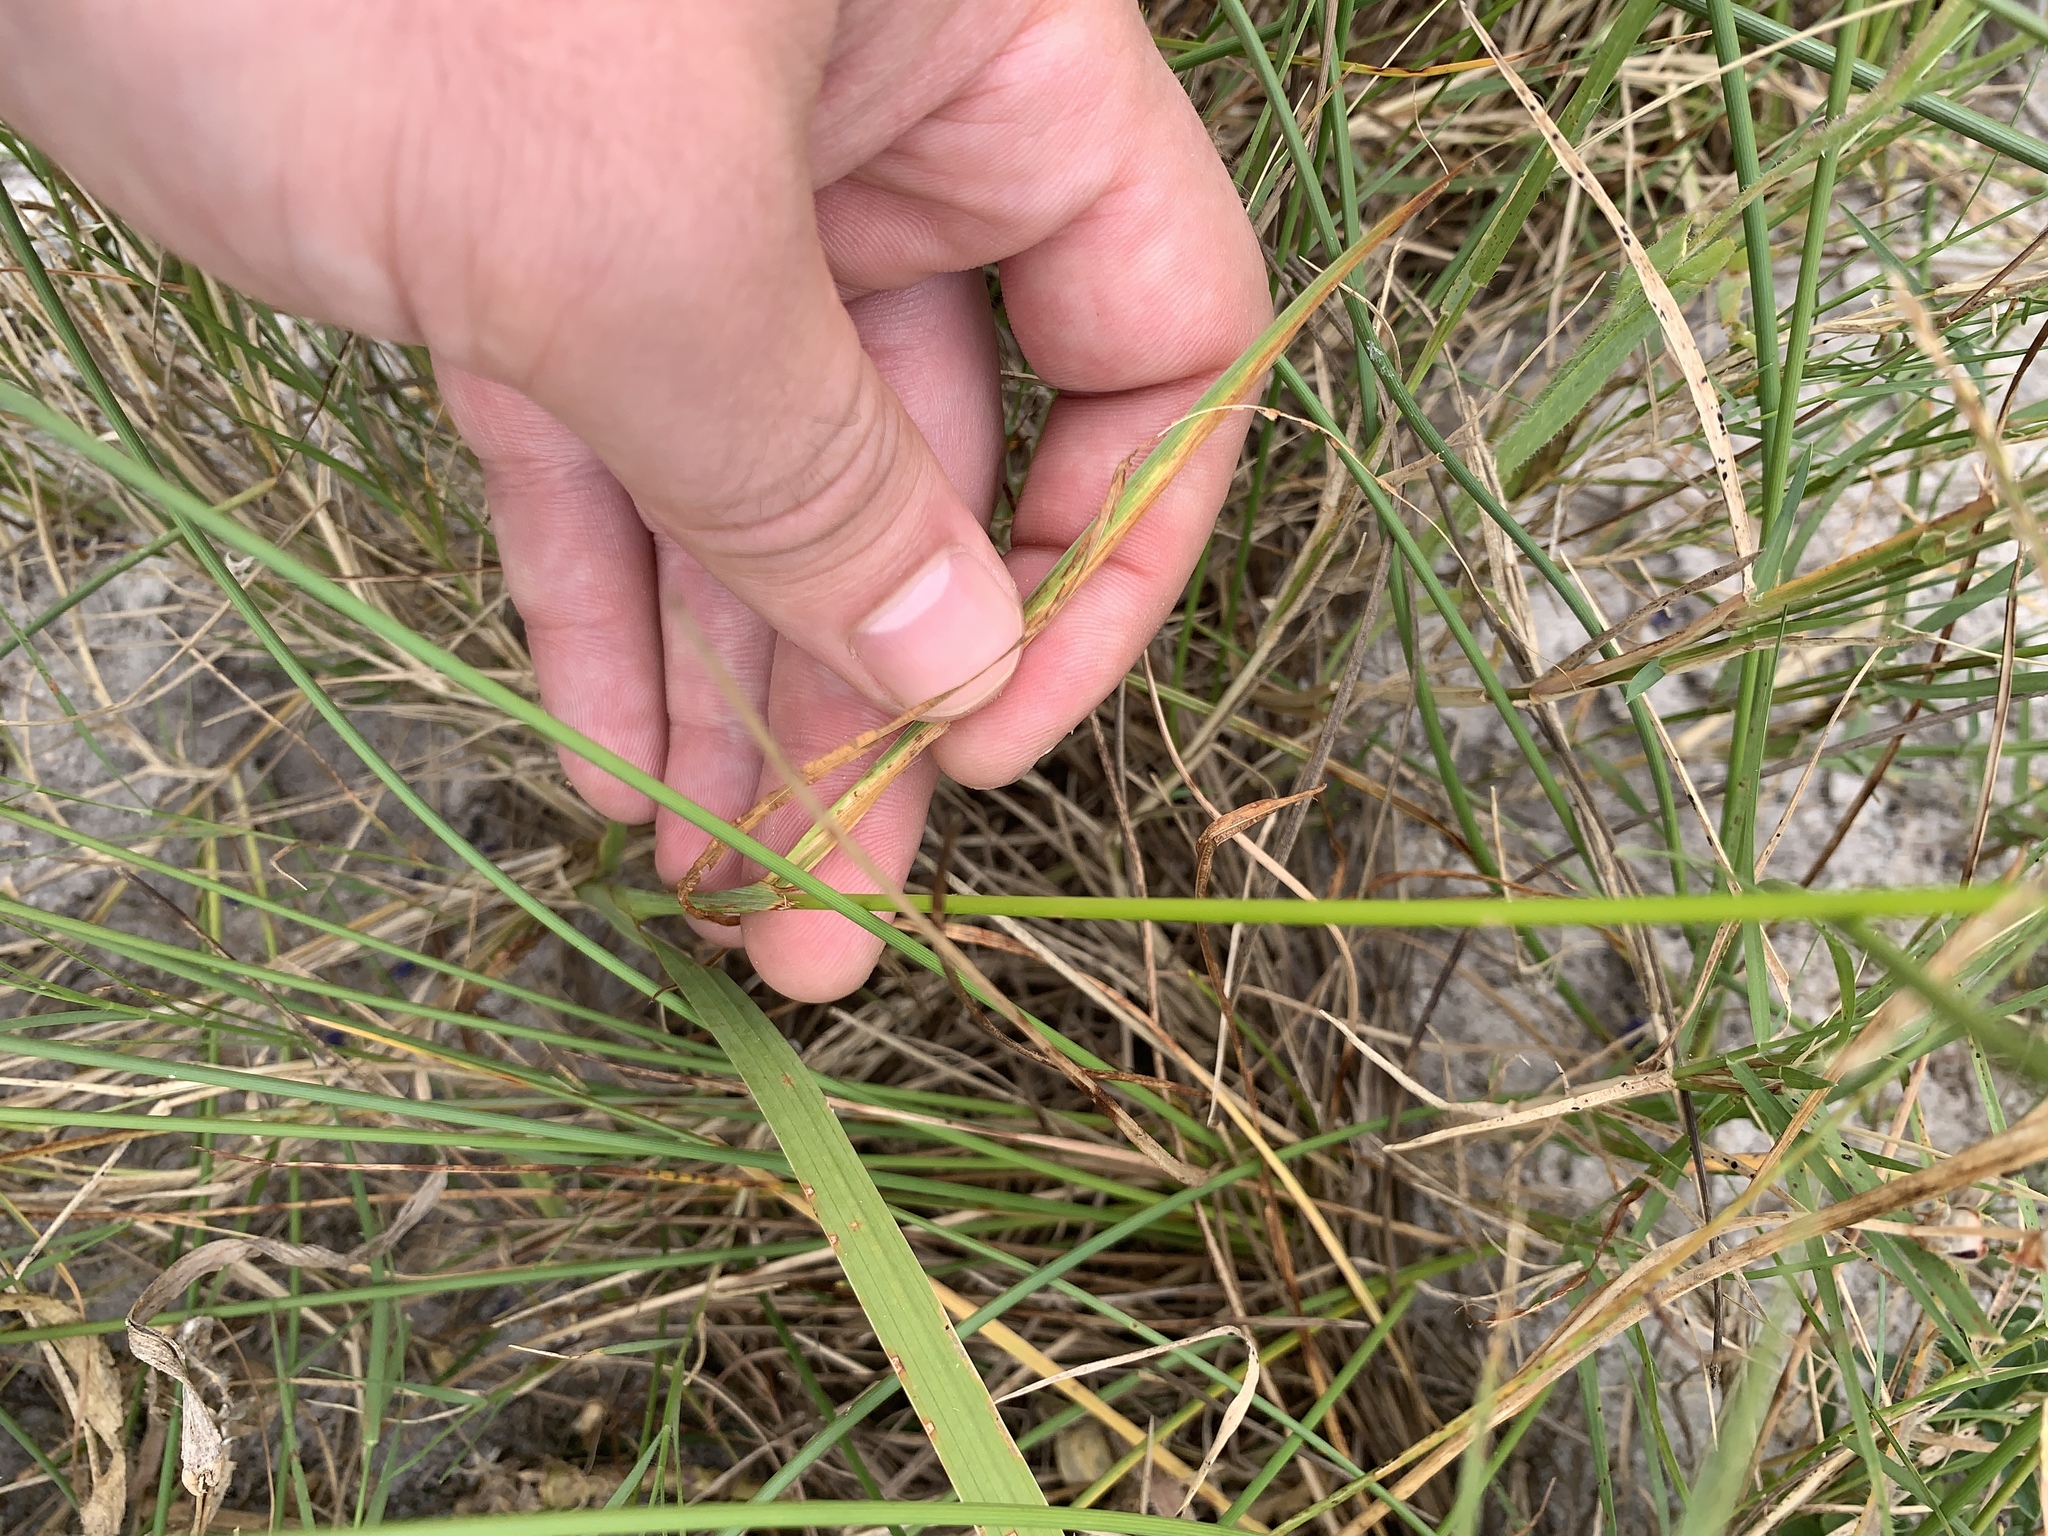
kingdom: Plantae
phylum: Tracheophyta
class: Liliopsida
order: Asparagales
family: Iridaceae
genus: Ixia
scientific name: Ixia paniculata
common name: Tubular corn-lily
